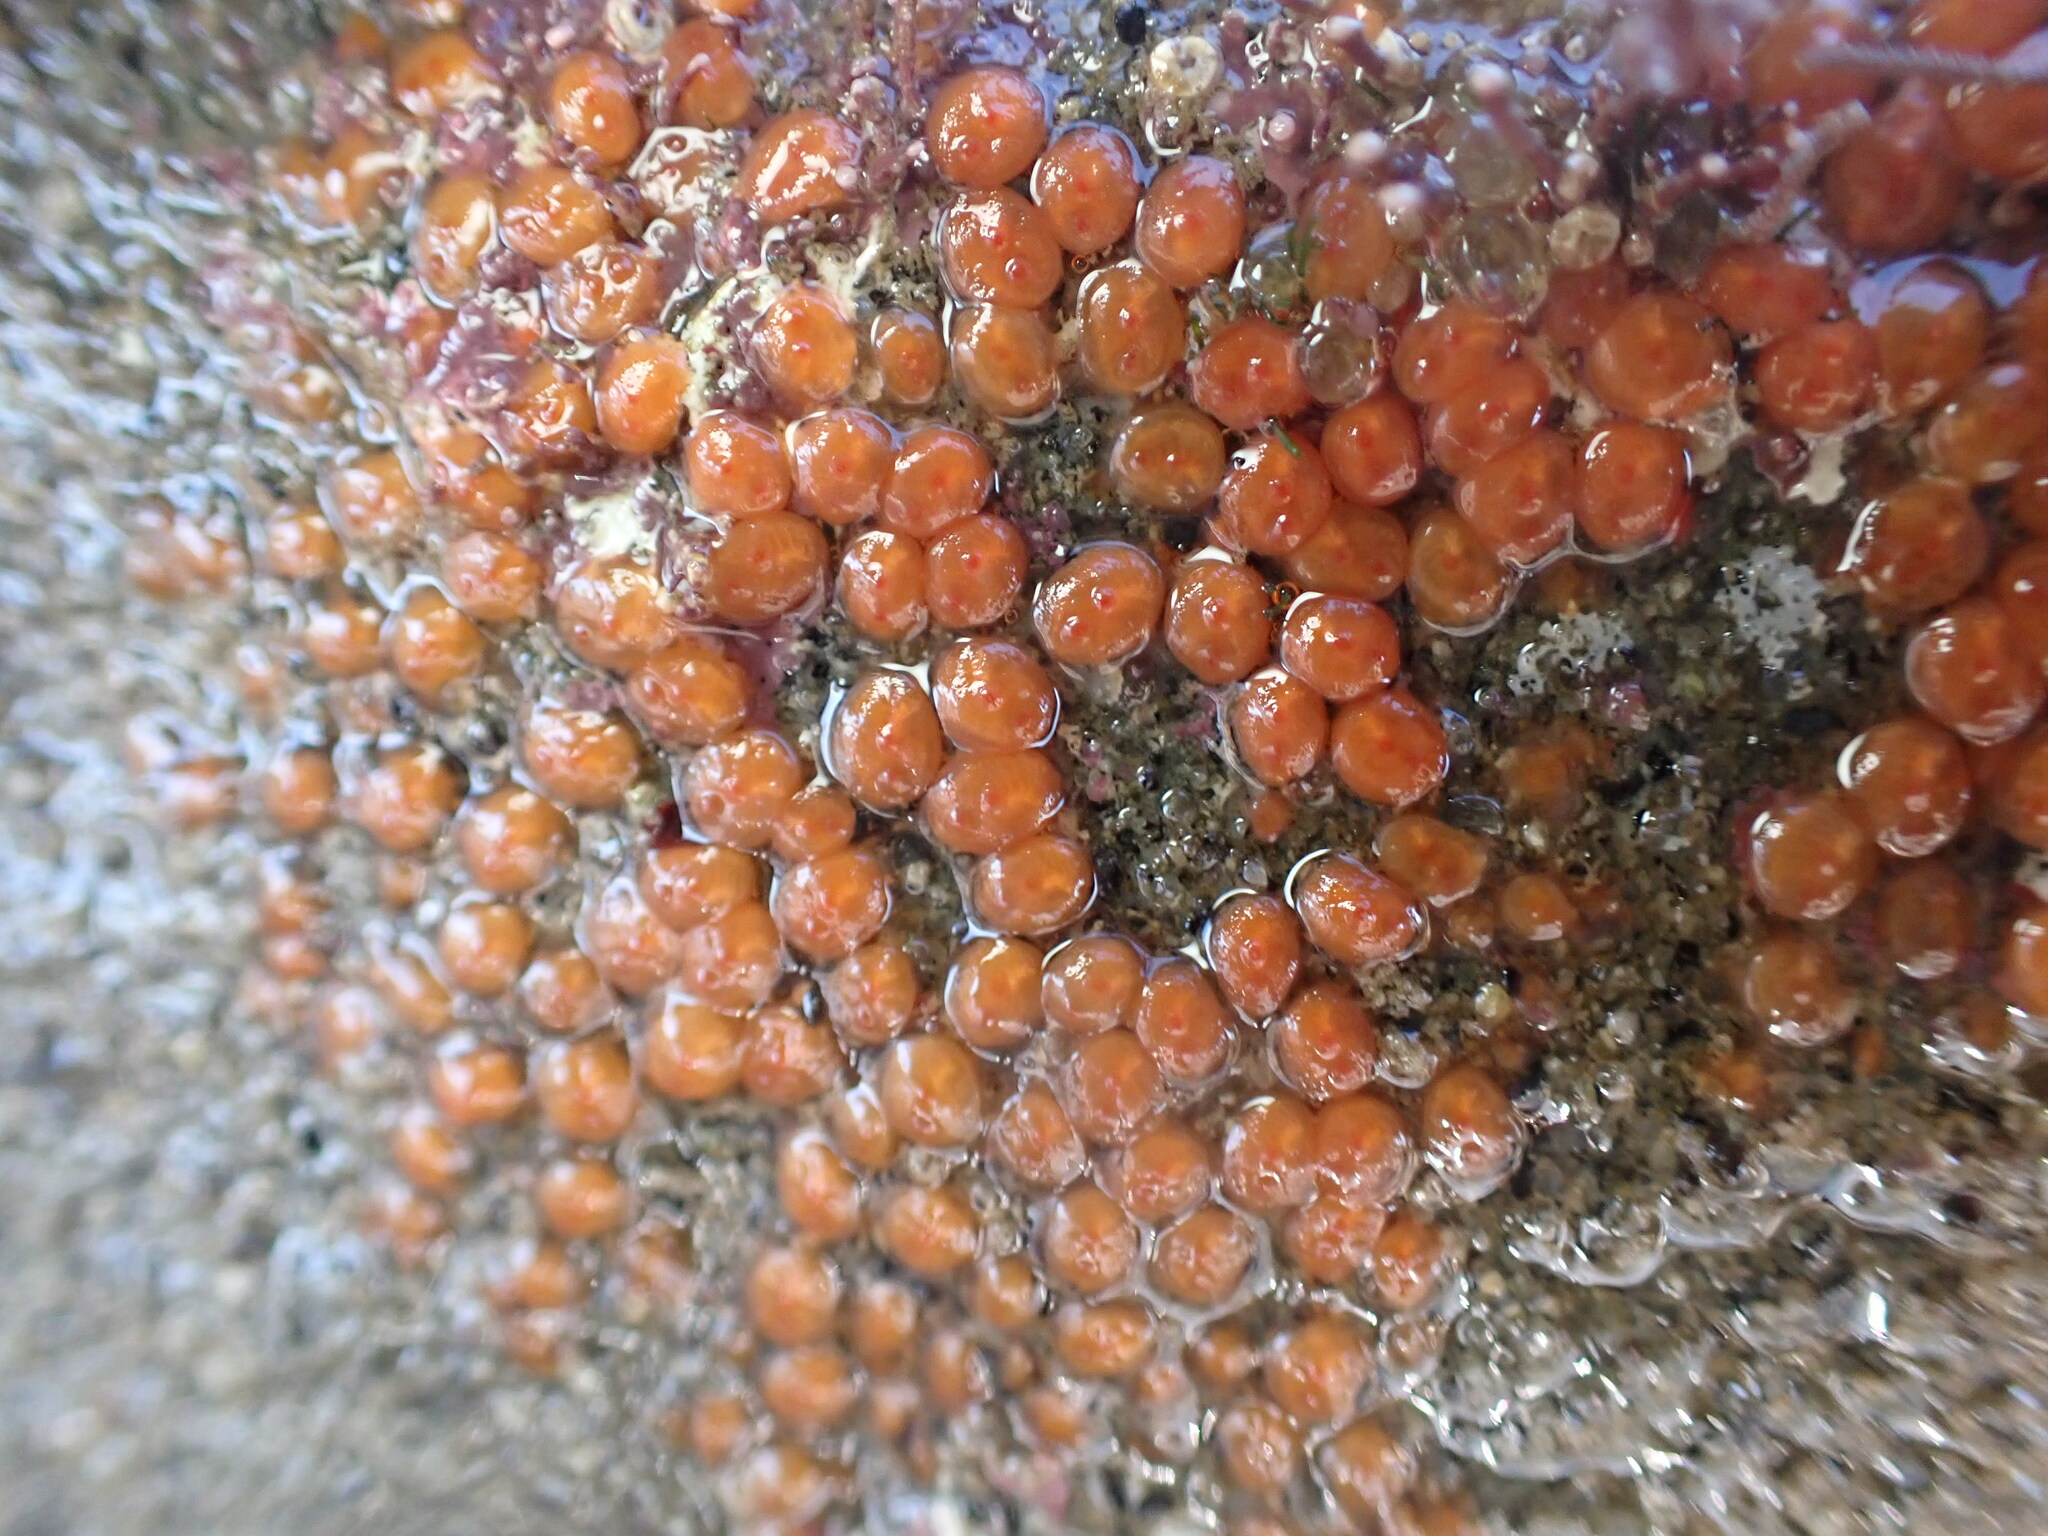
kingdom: Animalia
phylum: Chordata
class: Ascidiacea
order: Stolidobranchia
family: Styelidae
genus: Metandrocarpa
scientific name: Metandrocarpa taylori
